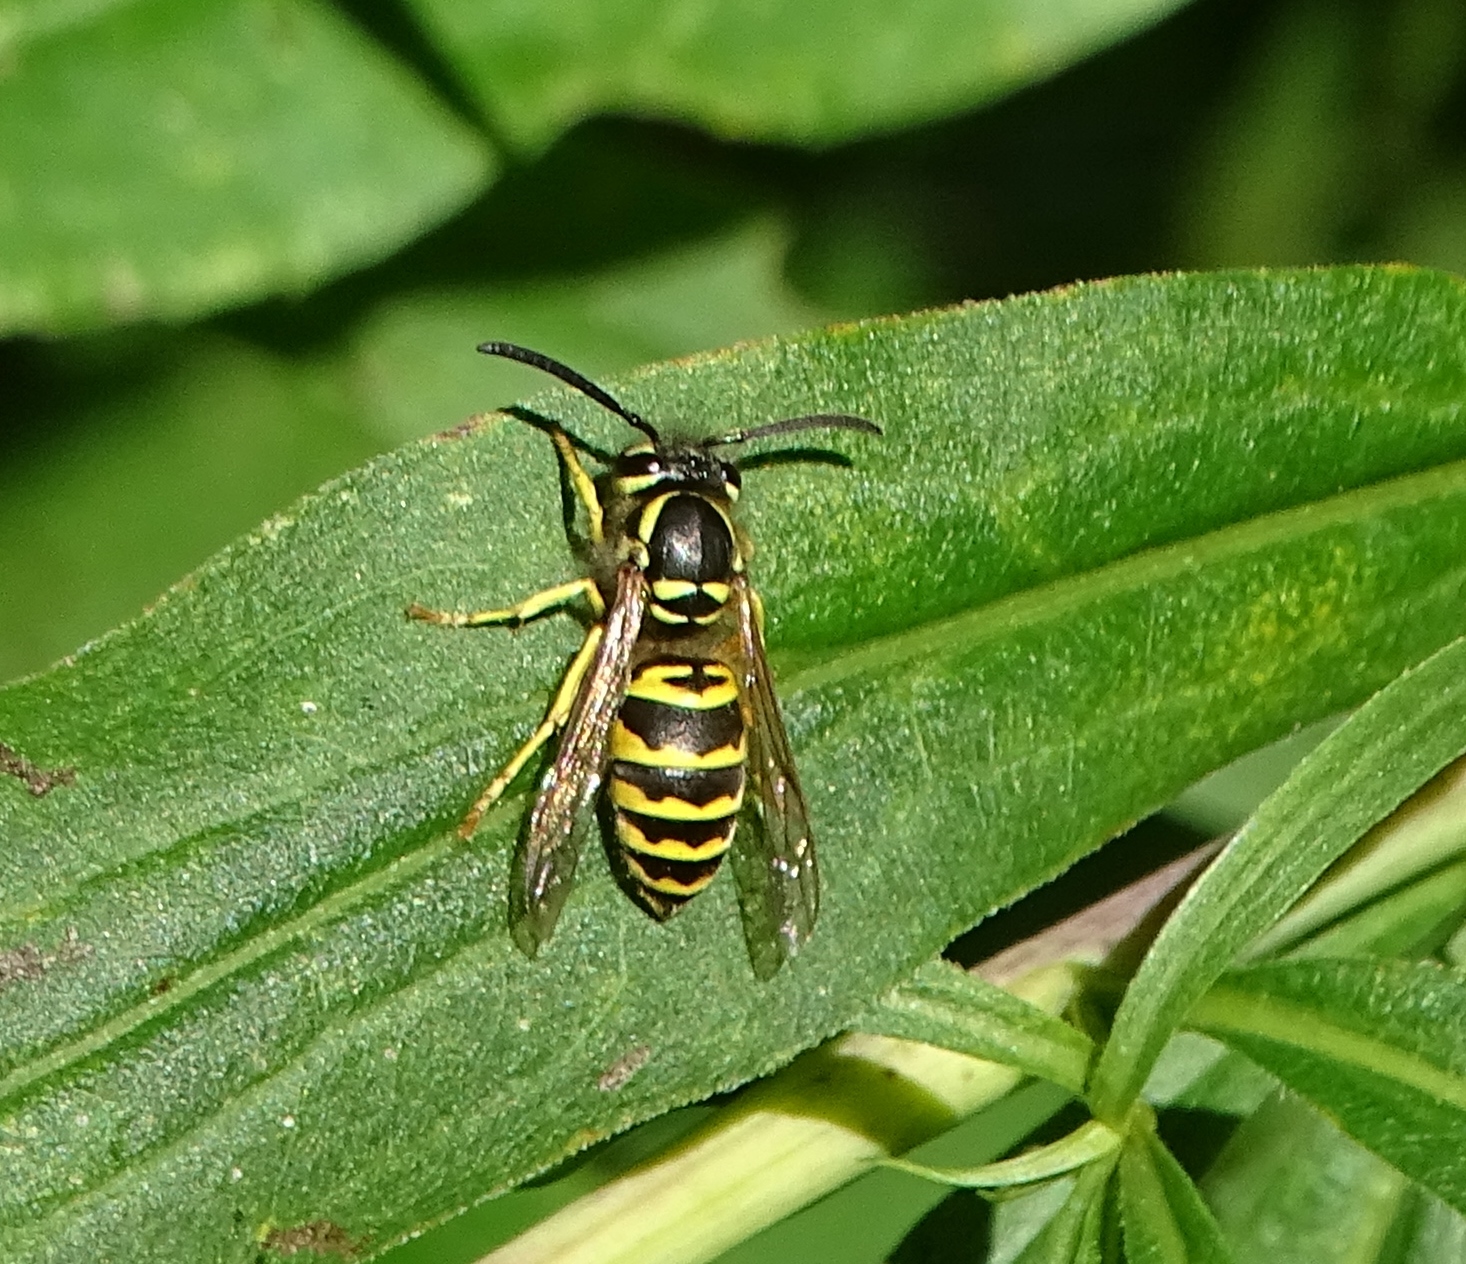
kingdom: Animalia
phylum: Arthropoda
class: Insecta
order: Hymenoptera
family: Vespidae
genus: Vespula
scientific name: Vespula maculifrons
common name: Eastern yellowjacket
